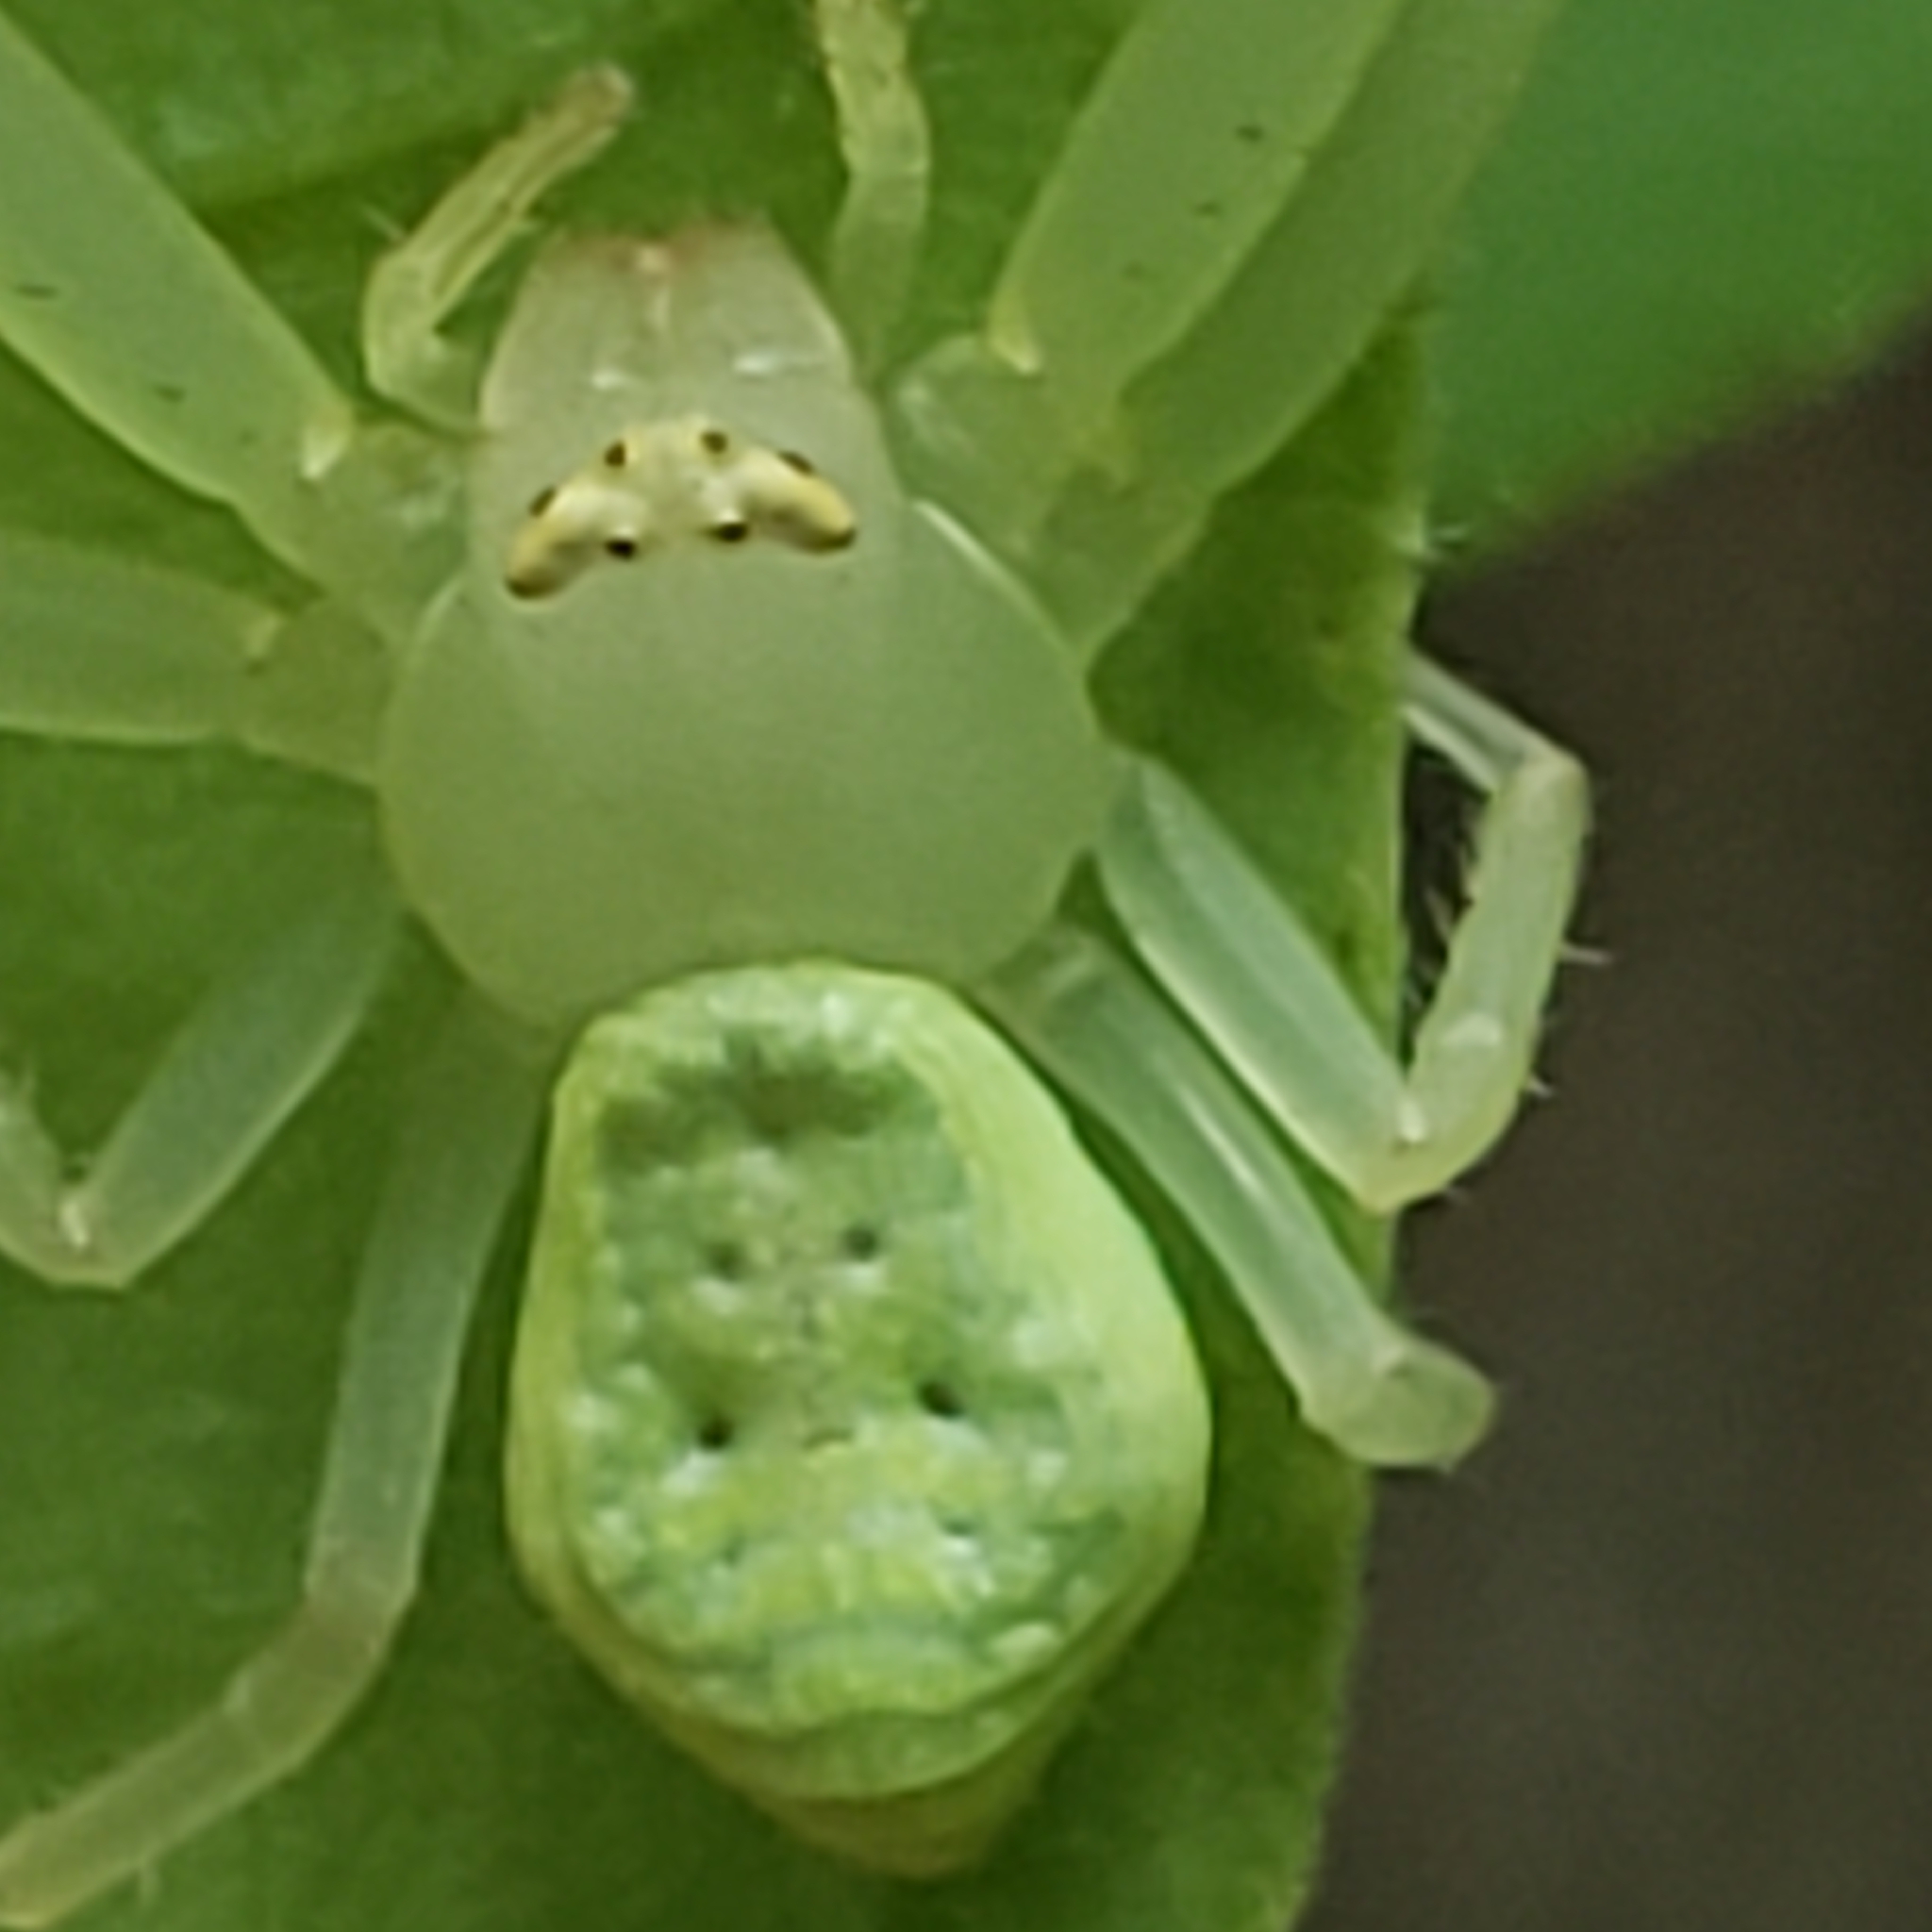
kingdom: Animalia
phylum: Arthropoda
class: Arachnida
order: Araneae
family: Thomisidae
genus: Misumessus
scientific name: Misumessus oblongus
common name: American green crab spider
